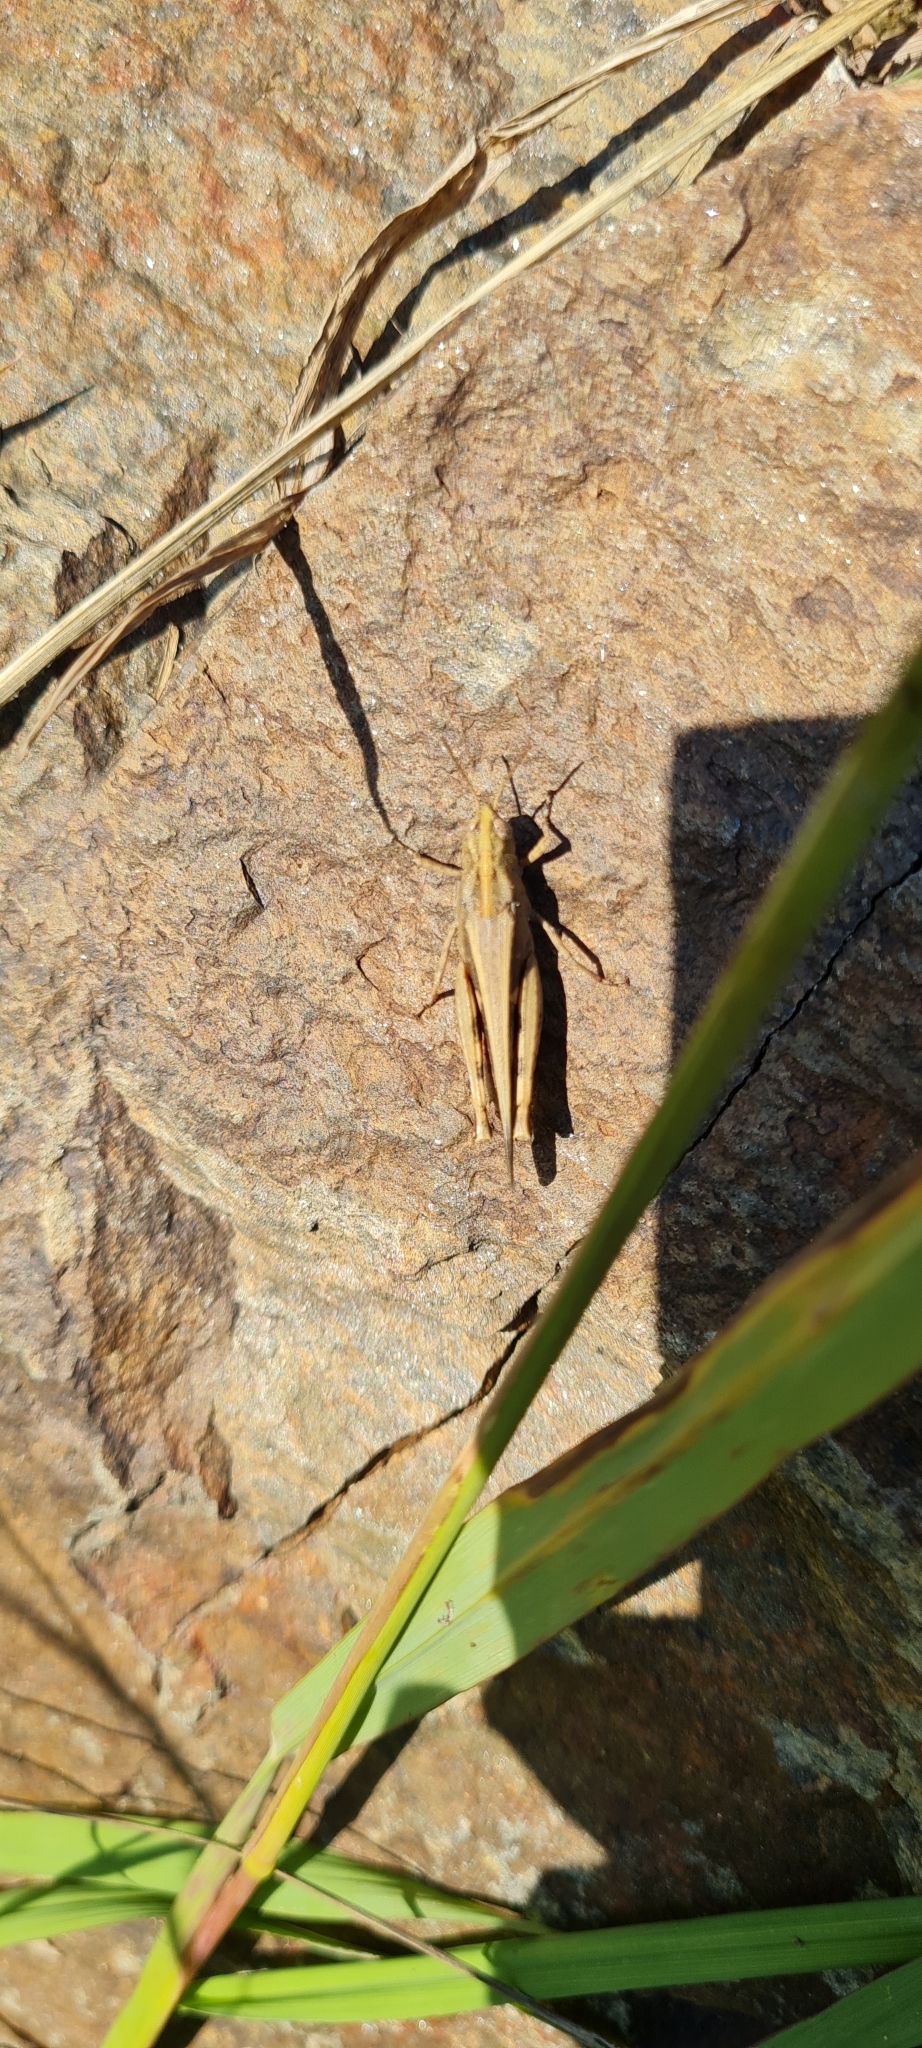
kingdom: Animalia
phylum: Arthropoda
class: Insecta
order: Orthoptera
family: Acrididae
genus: Aiolopus
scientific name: Aiolopus strepens
